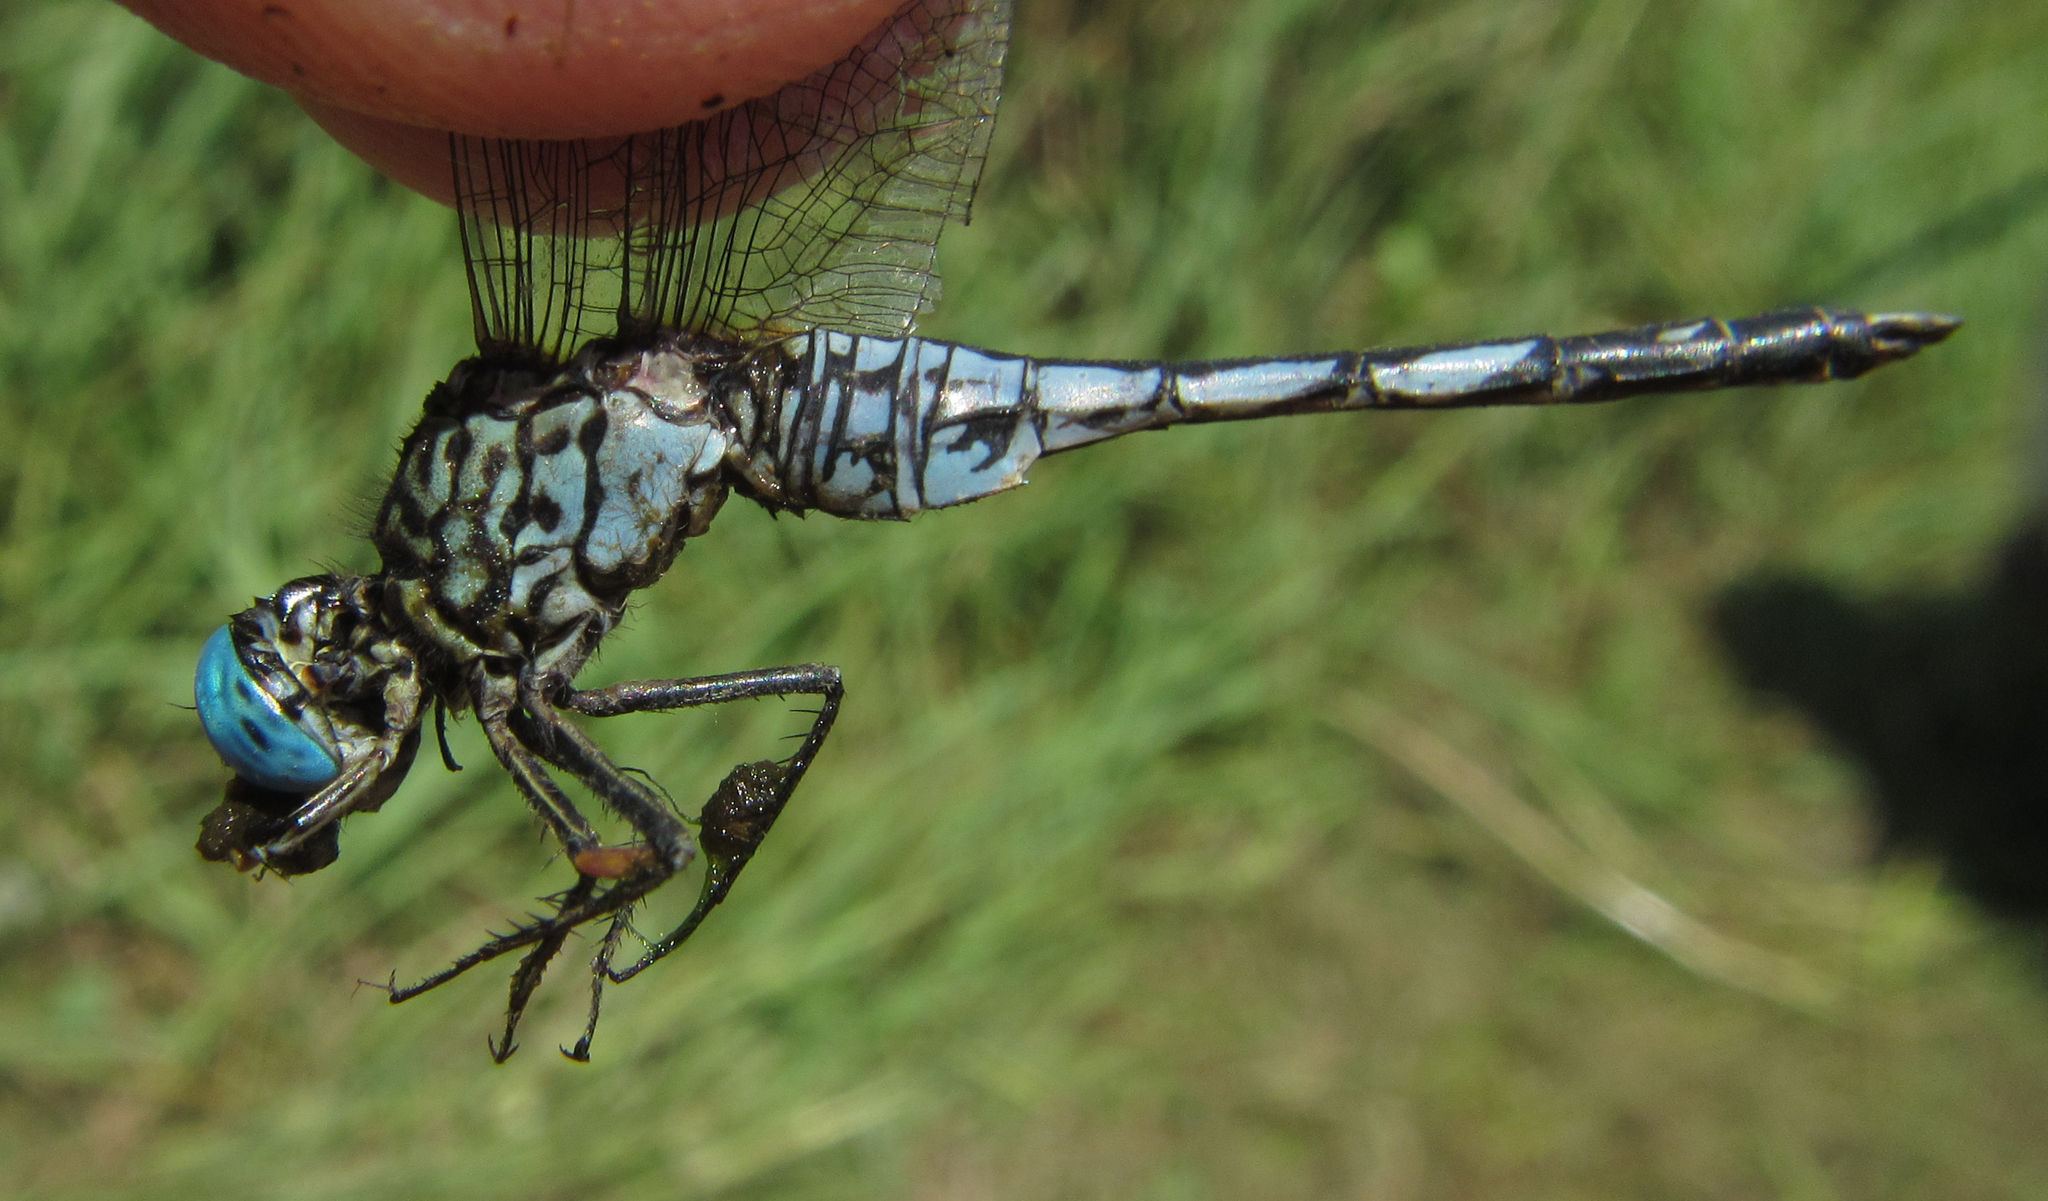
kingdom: Animalia
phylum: Arthropoda
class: Insecta
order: Odonata
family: Libellulidae
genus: Acisoma
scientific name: Acisoma variegatum
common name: Slender pintail
